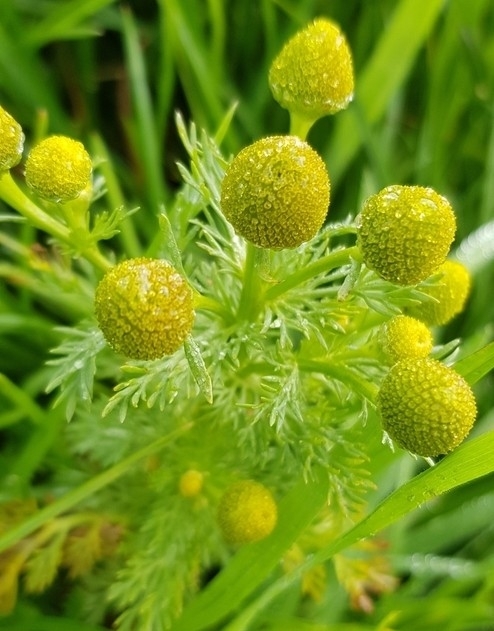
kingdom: Plantae
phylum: Tracheophyta
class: Magnoliopsida
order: Asterales
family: Asteraceae
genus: Matricaria
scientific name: Matricaria discoidea
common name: Disc mayweed
